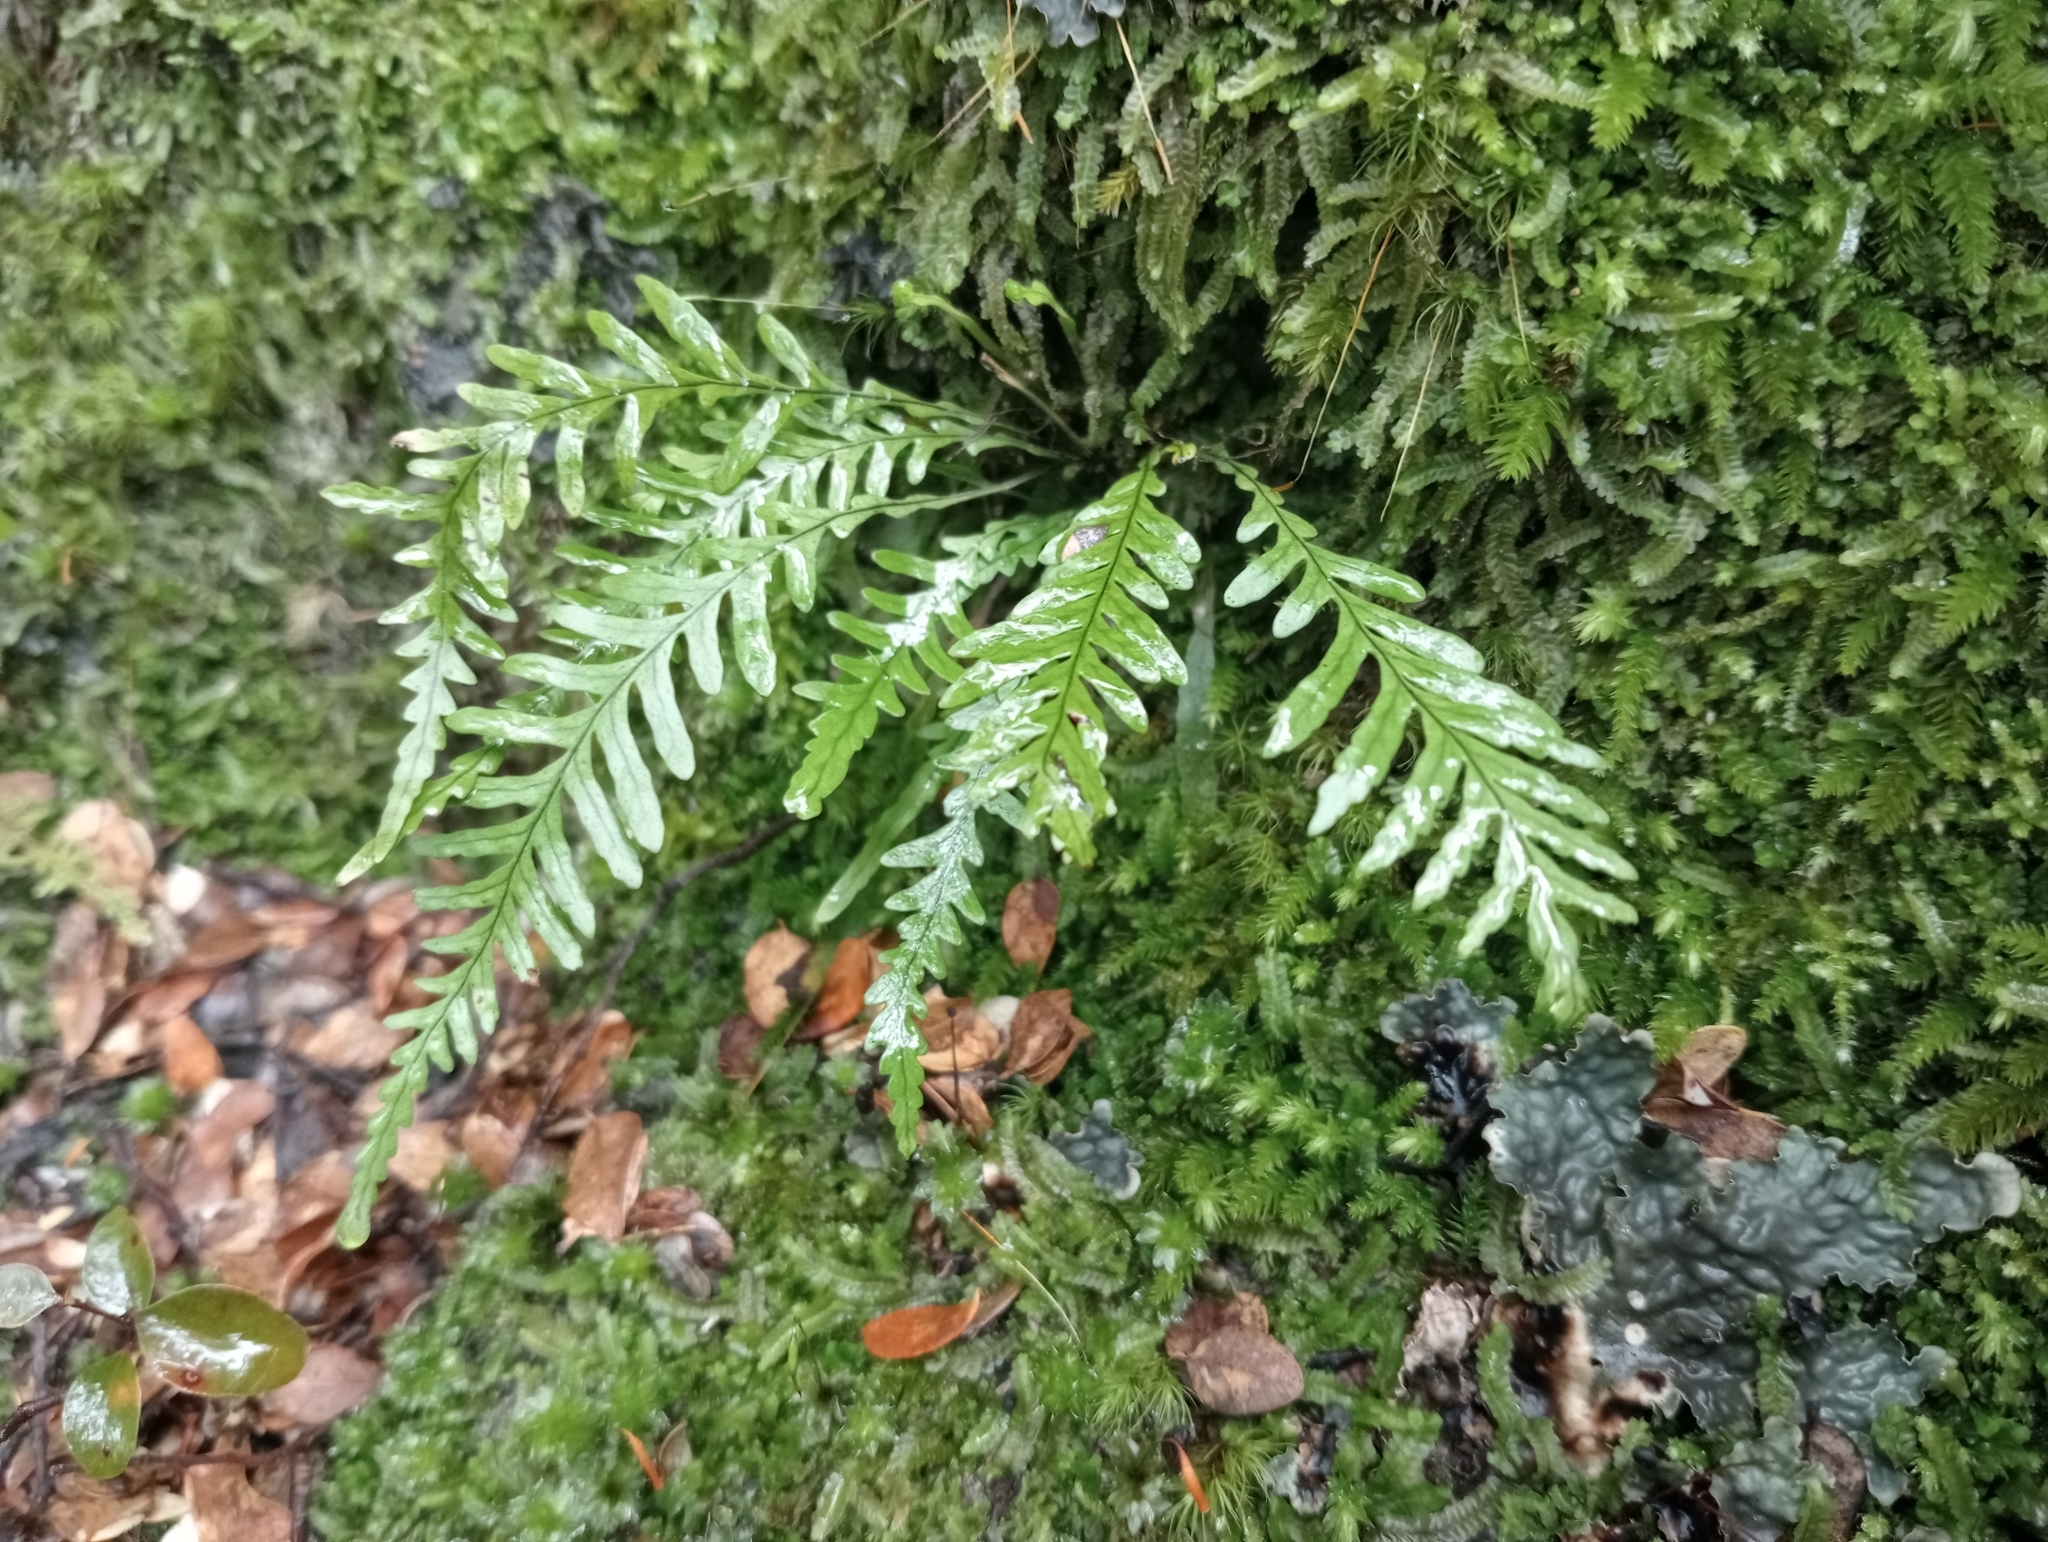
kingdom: Plantae
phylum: Tracheophyta
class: Polypodiopsida
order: Polypodiales
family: Polypodiaceae
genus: Notogrammitis
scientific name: Notogrammitis heterophylla
